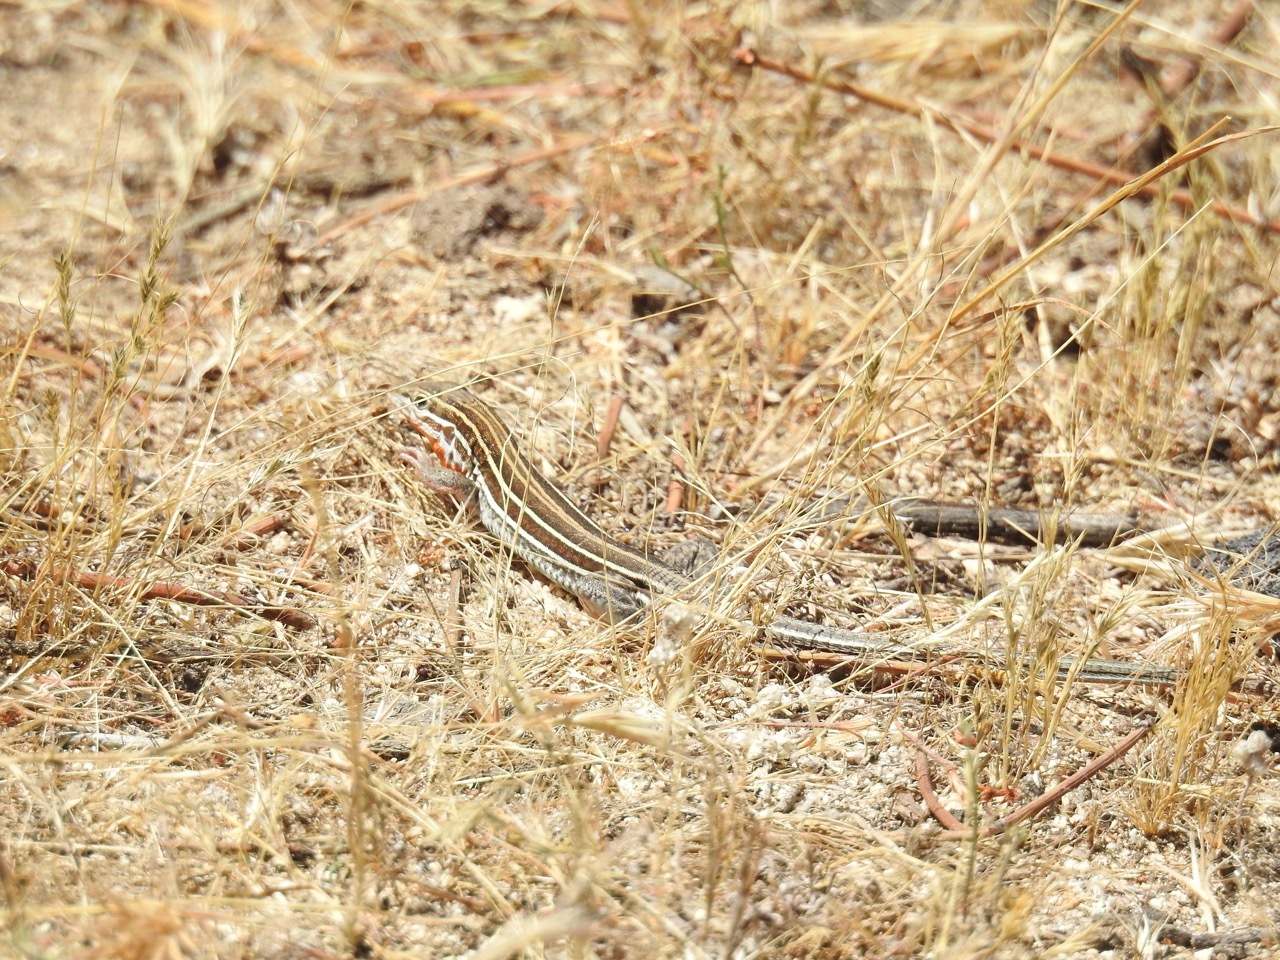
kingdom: Animalia
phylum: Chordata
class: Squamata
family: Teiidae
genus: Aspidoscelis
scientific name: Aspidoscelis hyperythrus
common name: Orange-throated race-runner
